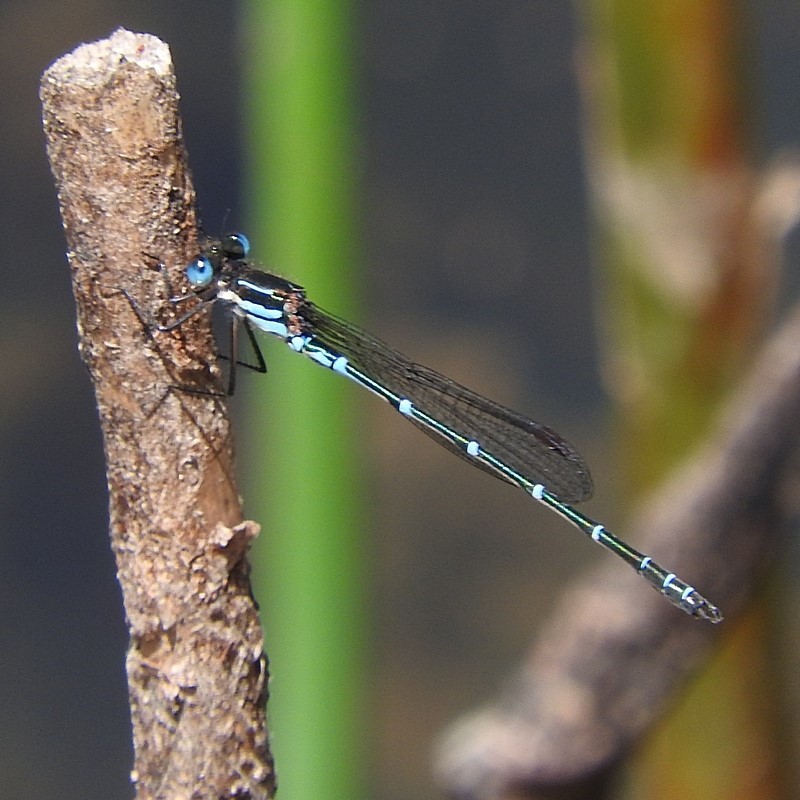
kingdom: Animalia
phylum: Arthropoda
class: Insecta
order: Odonata
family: Lestidae
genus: Austrolestes
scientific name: Austrolestes psyche
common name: Cup ringtail
